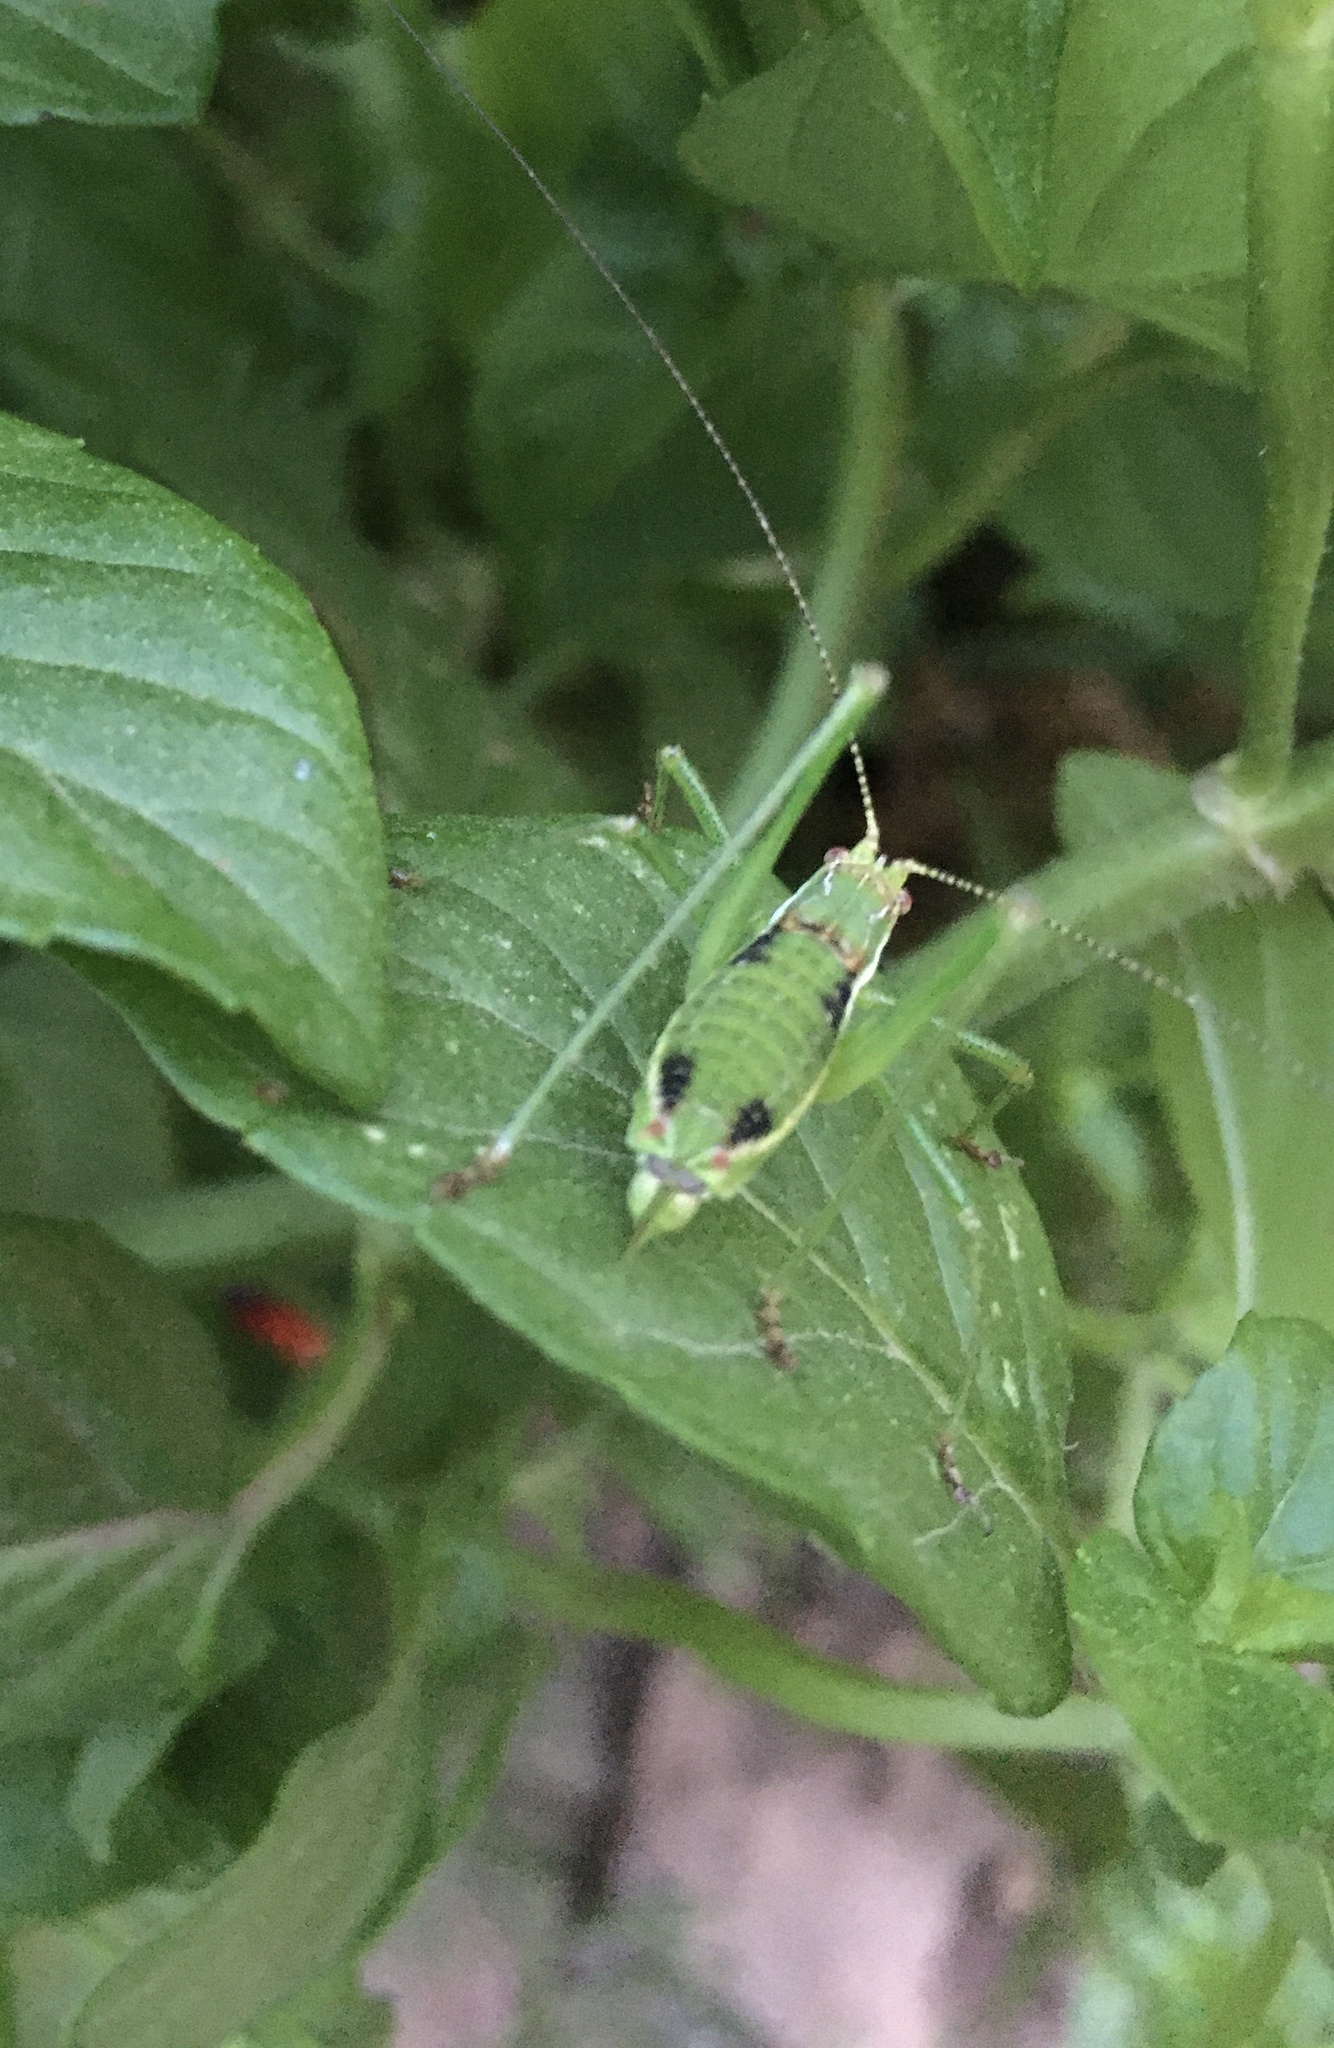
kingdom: Animalia
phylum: Arthropoda
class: Insecta
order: Orthoptera
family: Tettigoniidae
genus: Leptophyes
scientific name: Leptophyes albovittata
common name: Striped bush-cricket
